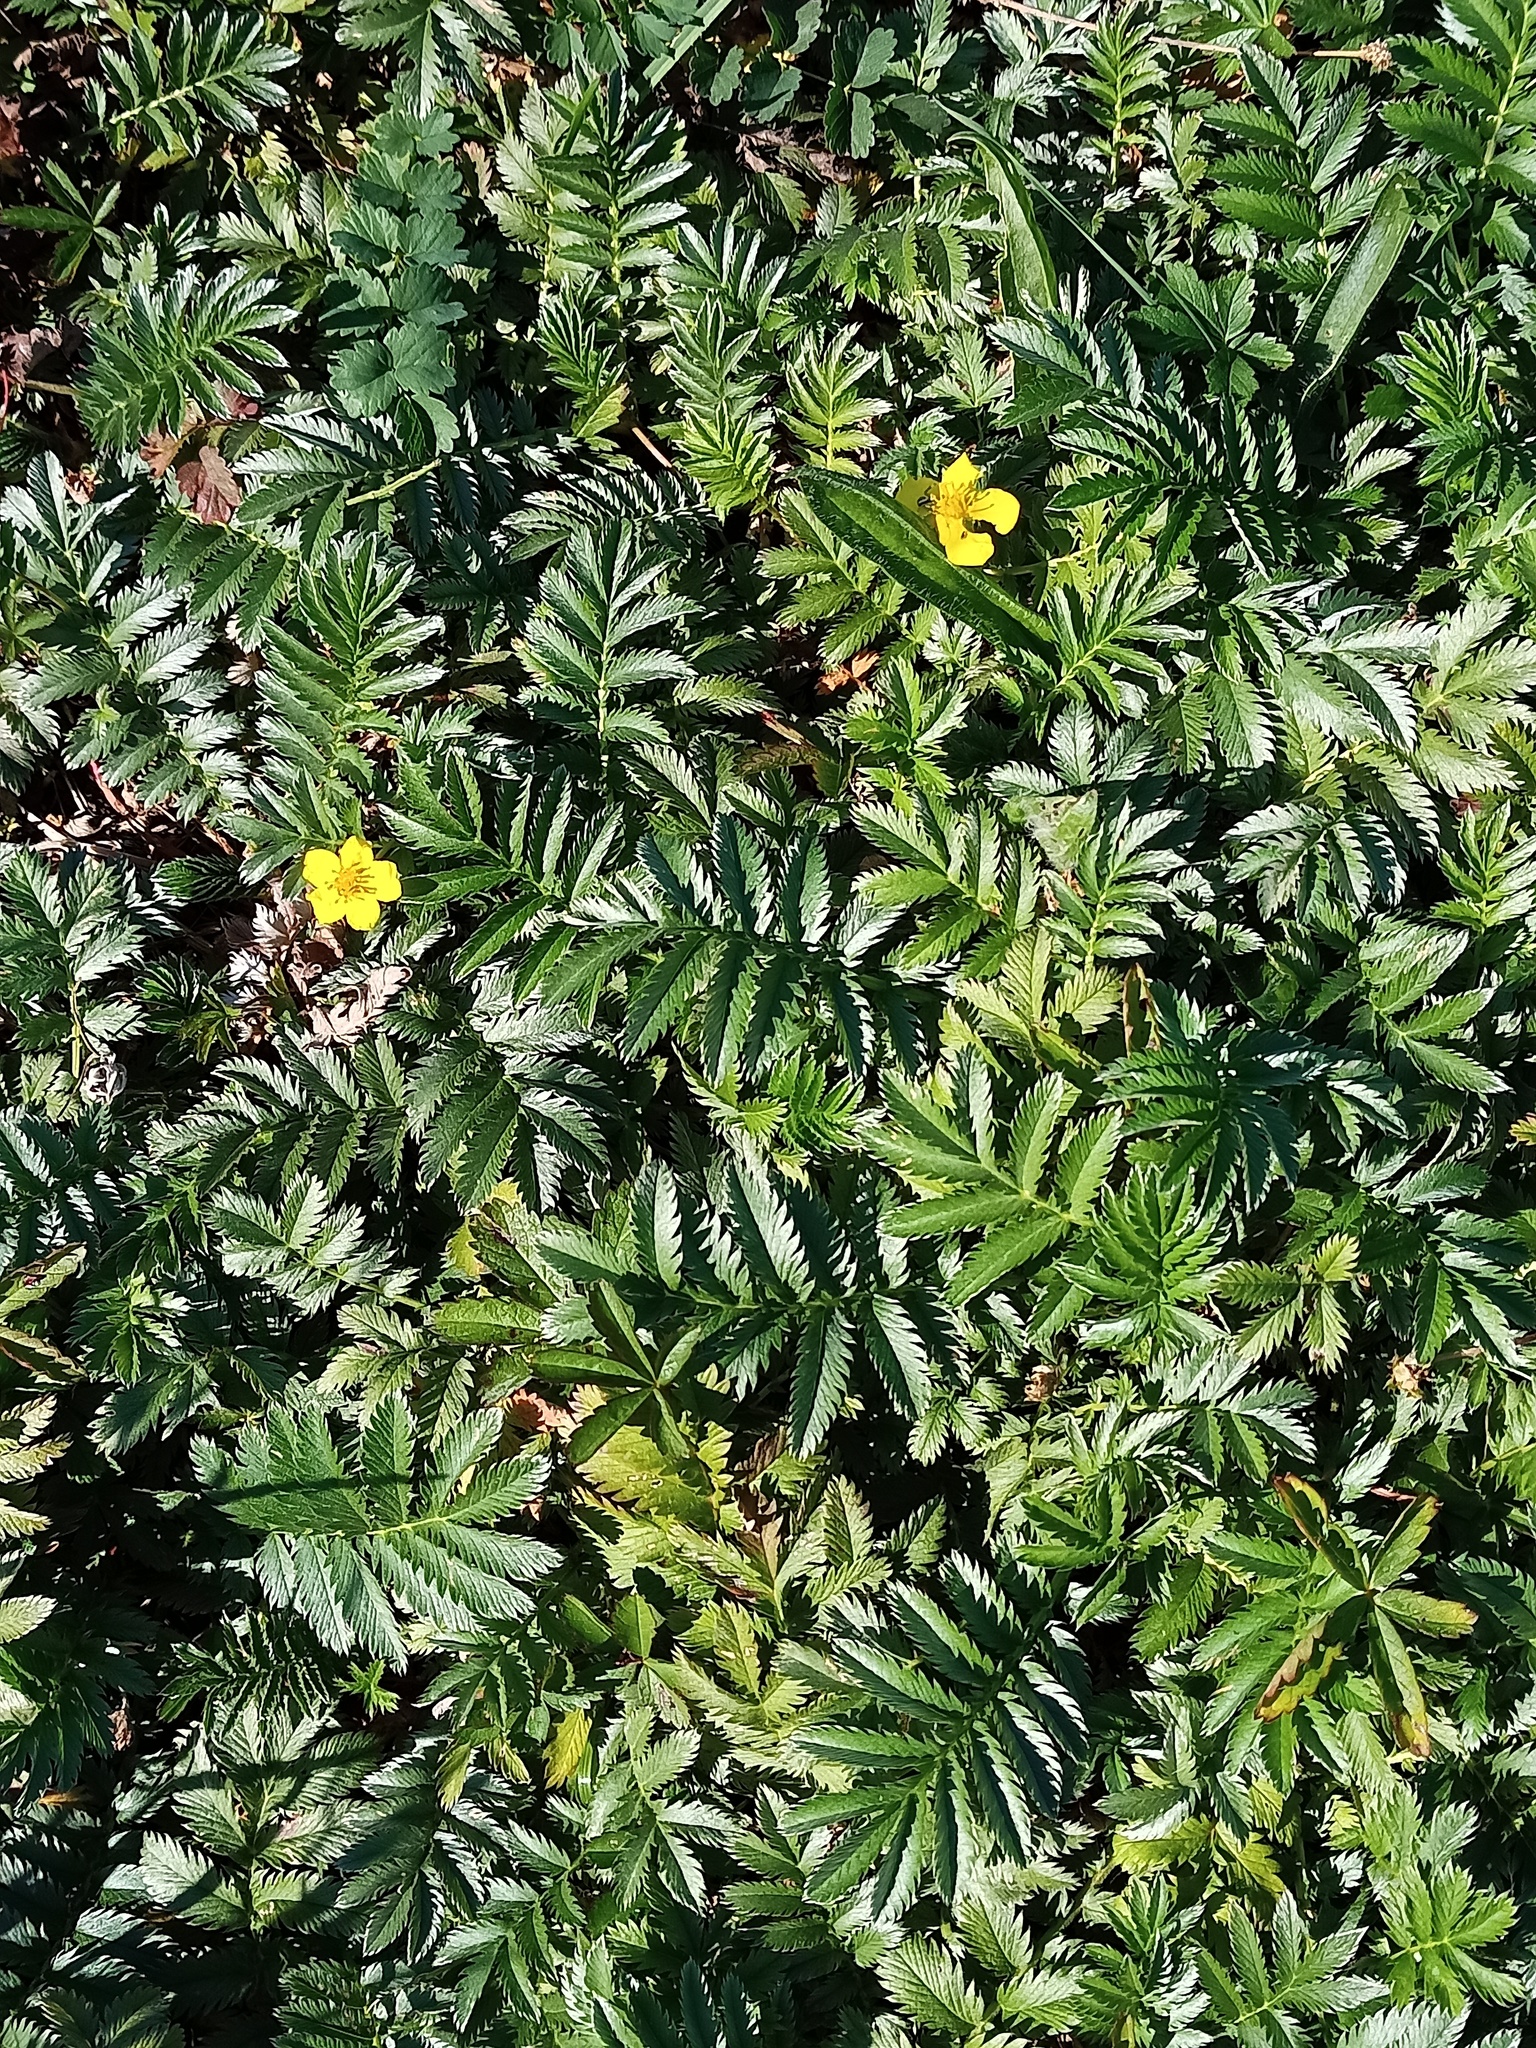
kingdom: Plantae
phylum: Tracheophyta
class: Magnoliopsida
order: Rosales
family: Rosaceae
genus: Argentina
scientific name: Argentina anserina
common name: Common silverweed
